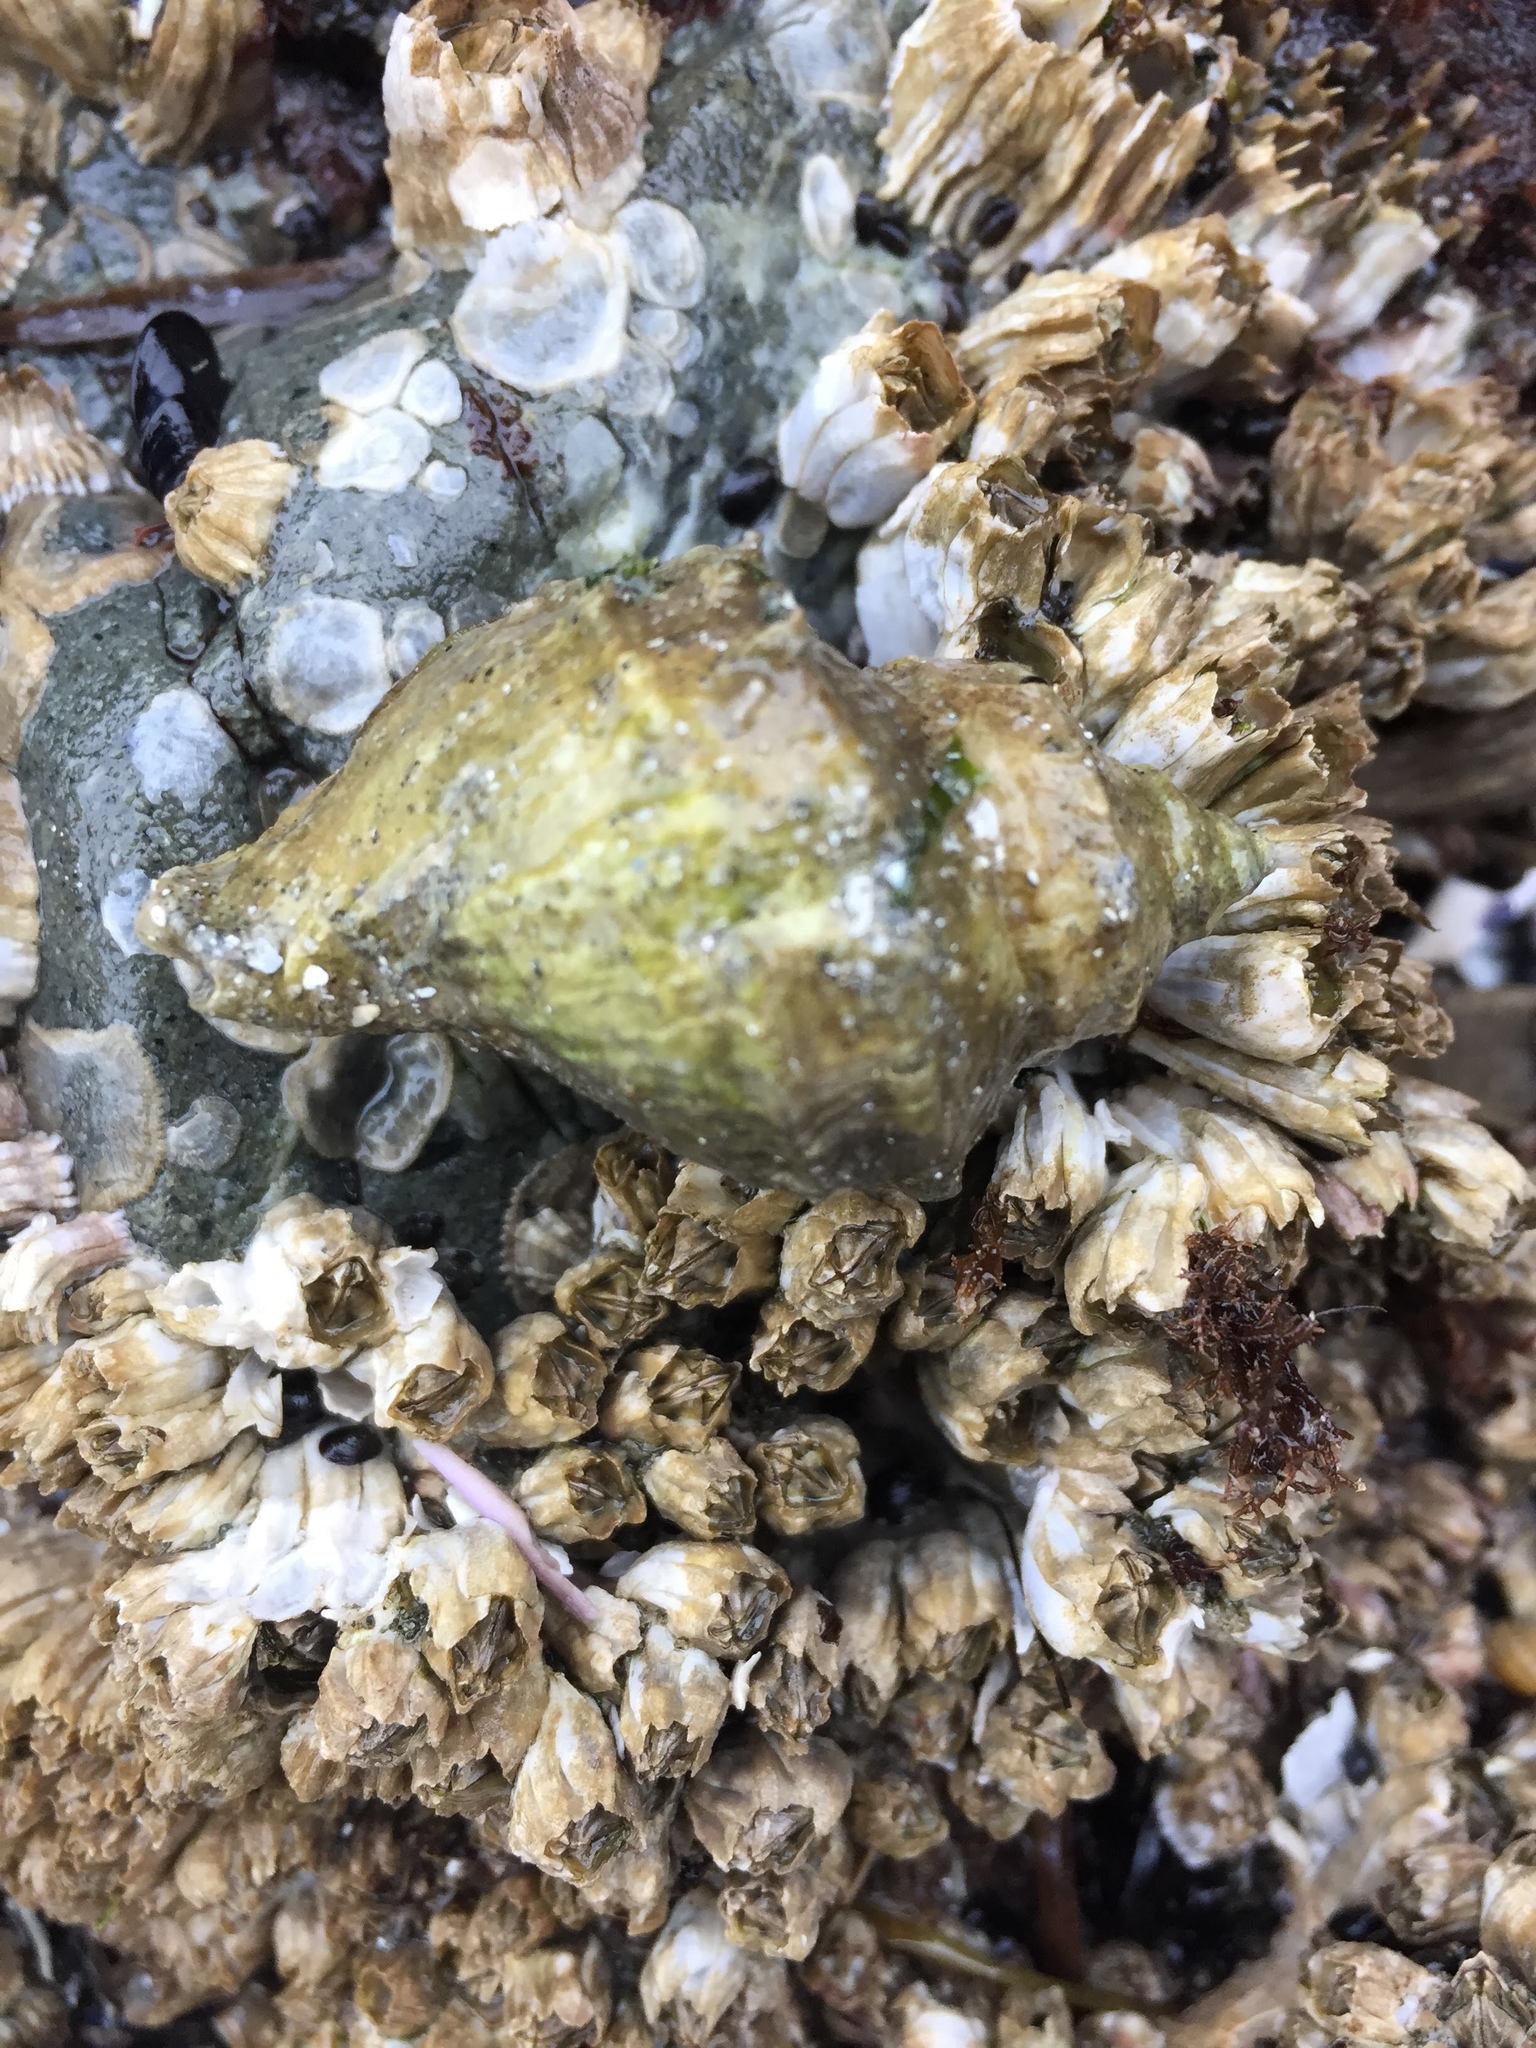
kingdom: Animalia
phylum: Mollusca
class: Gastropoda
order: Neogastropoda
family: Muricidae
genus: Nucella
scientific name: Nucella lamellosa
